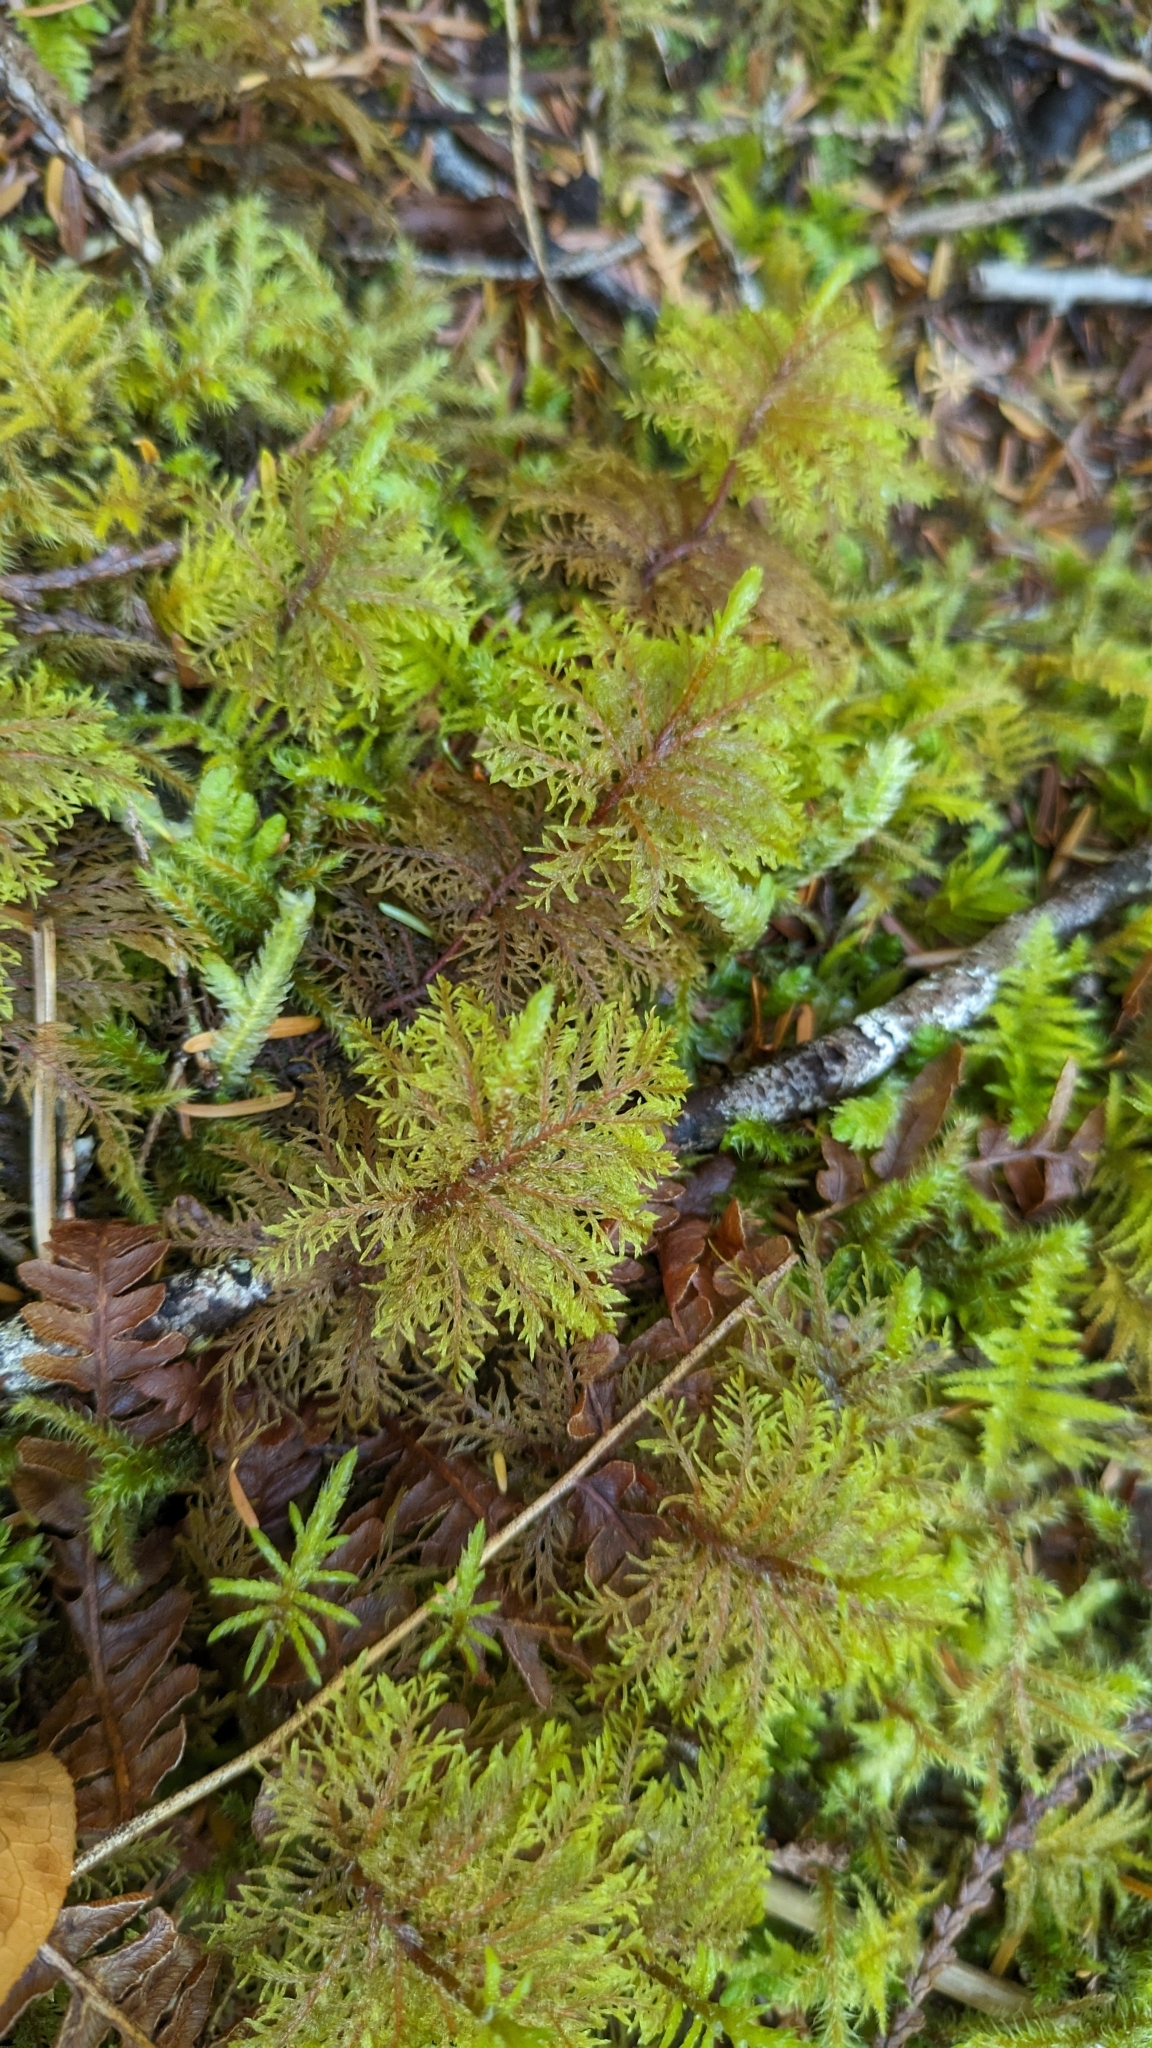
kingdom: Plantae
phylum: Bryophyta
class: Bryopsida
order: Hypnales
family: Hylocomiaceae
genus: Hylocomium
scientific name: Hylocomium splendens
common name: Stairstep moss
